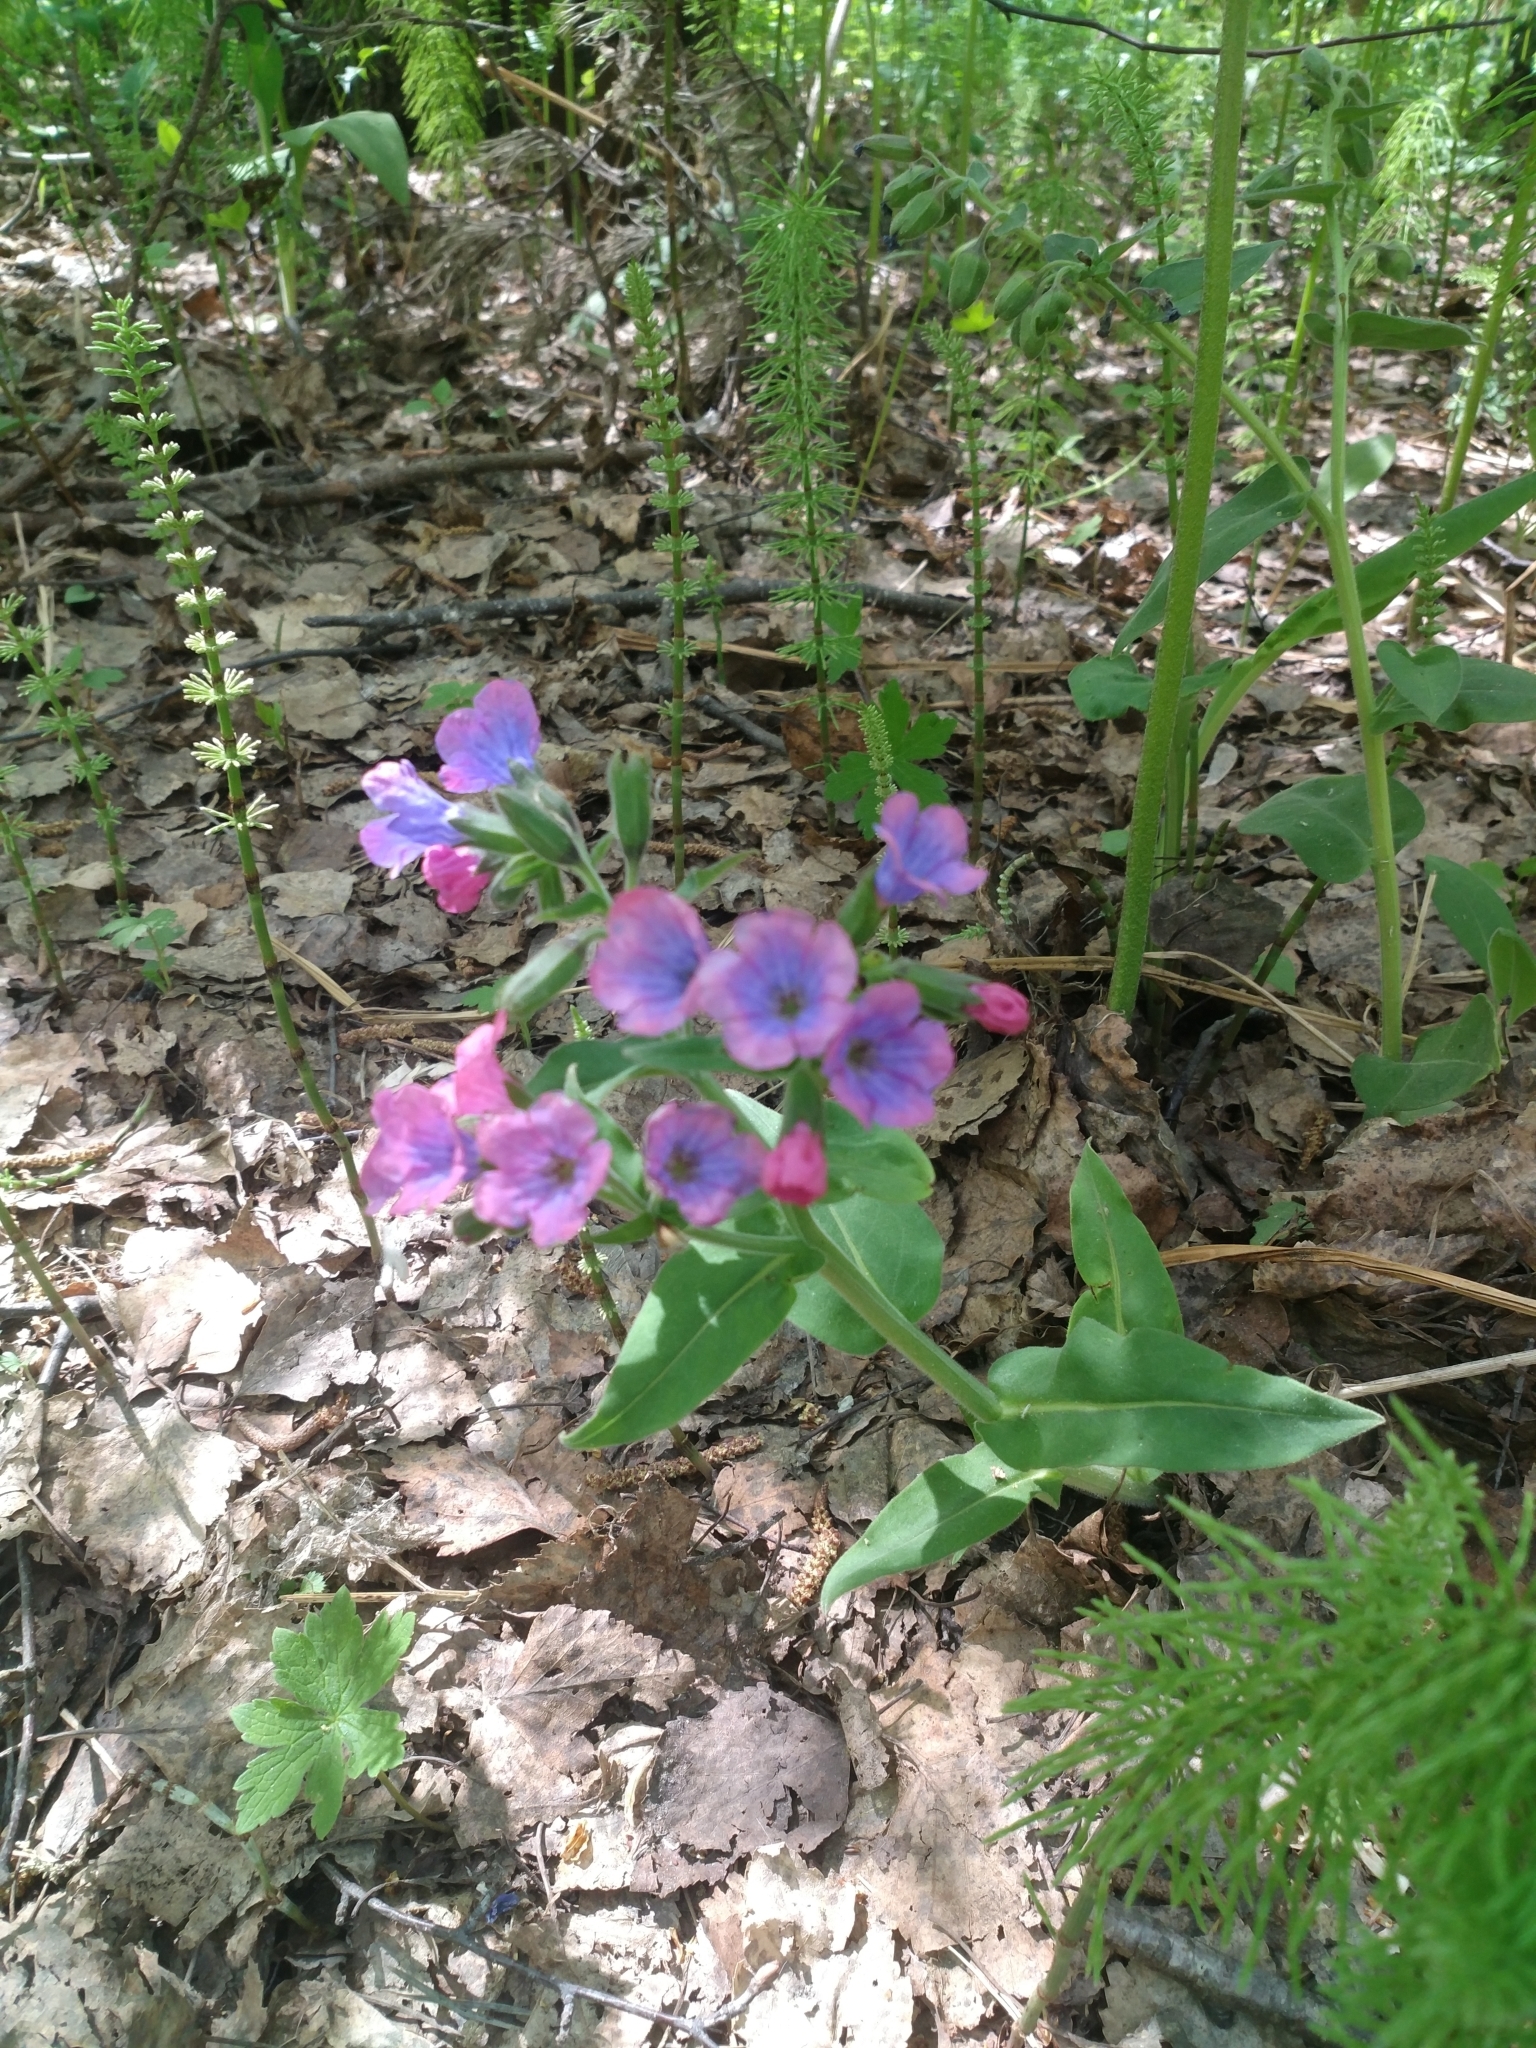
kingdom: Plantae
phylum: Tracheophyta
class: Magnoliopsida
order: Boraginales
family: Boraginaceae
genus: Pulmonaria
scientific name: Pulmonaria mollis
